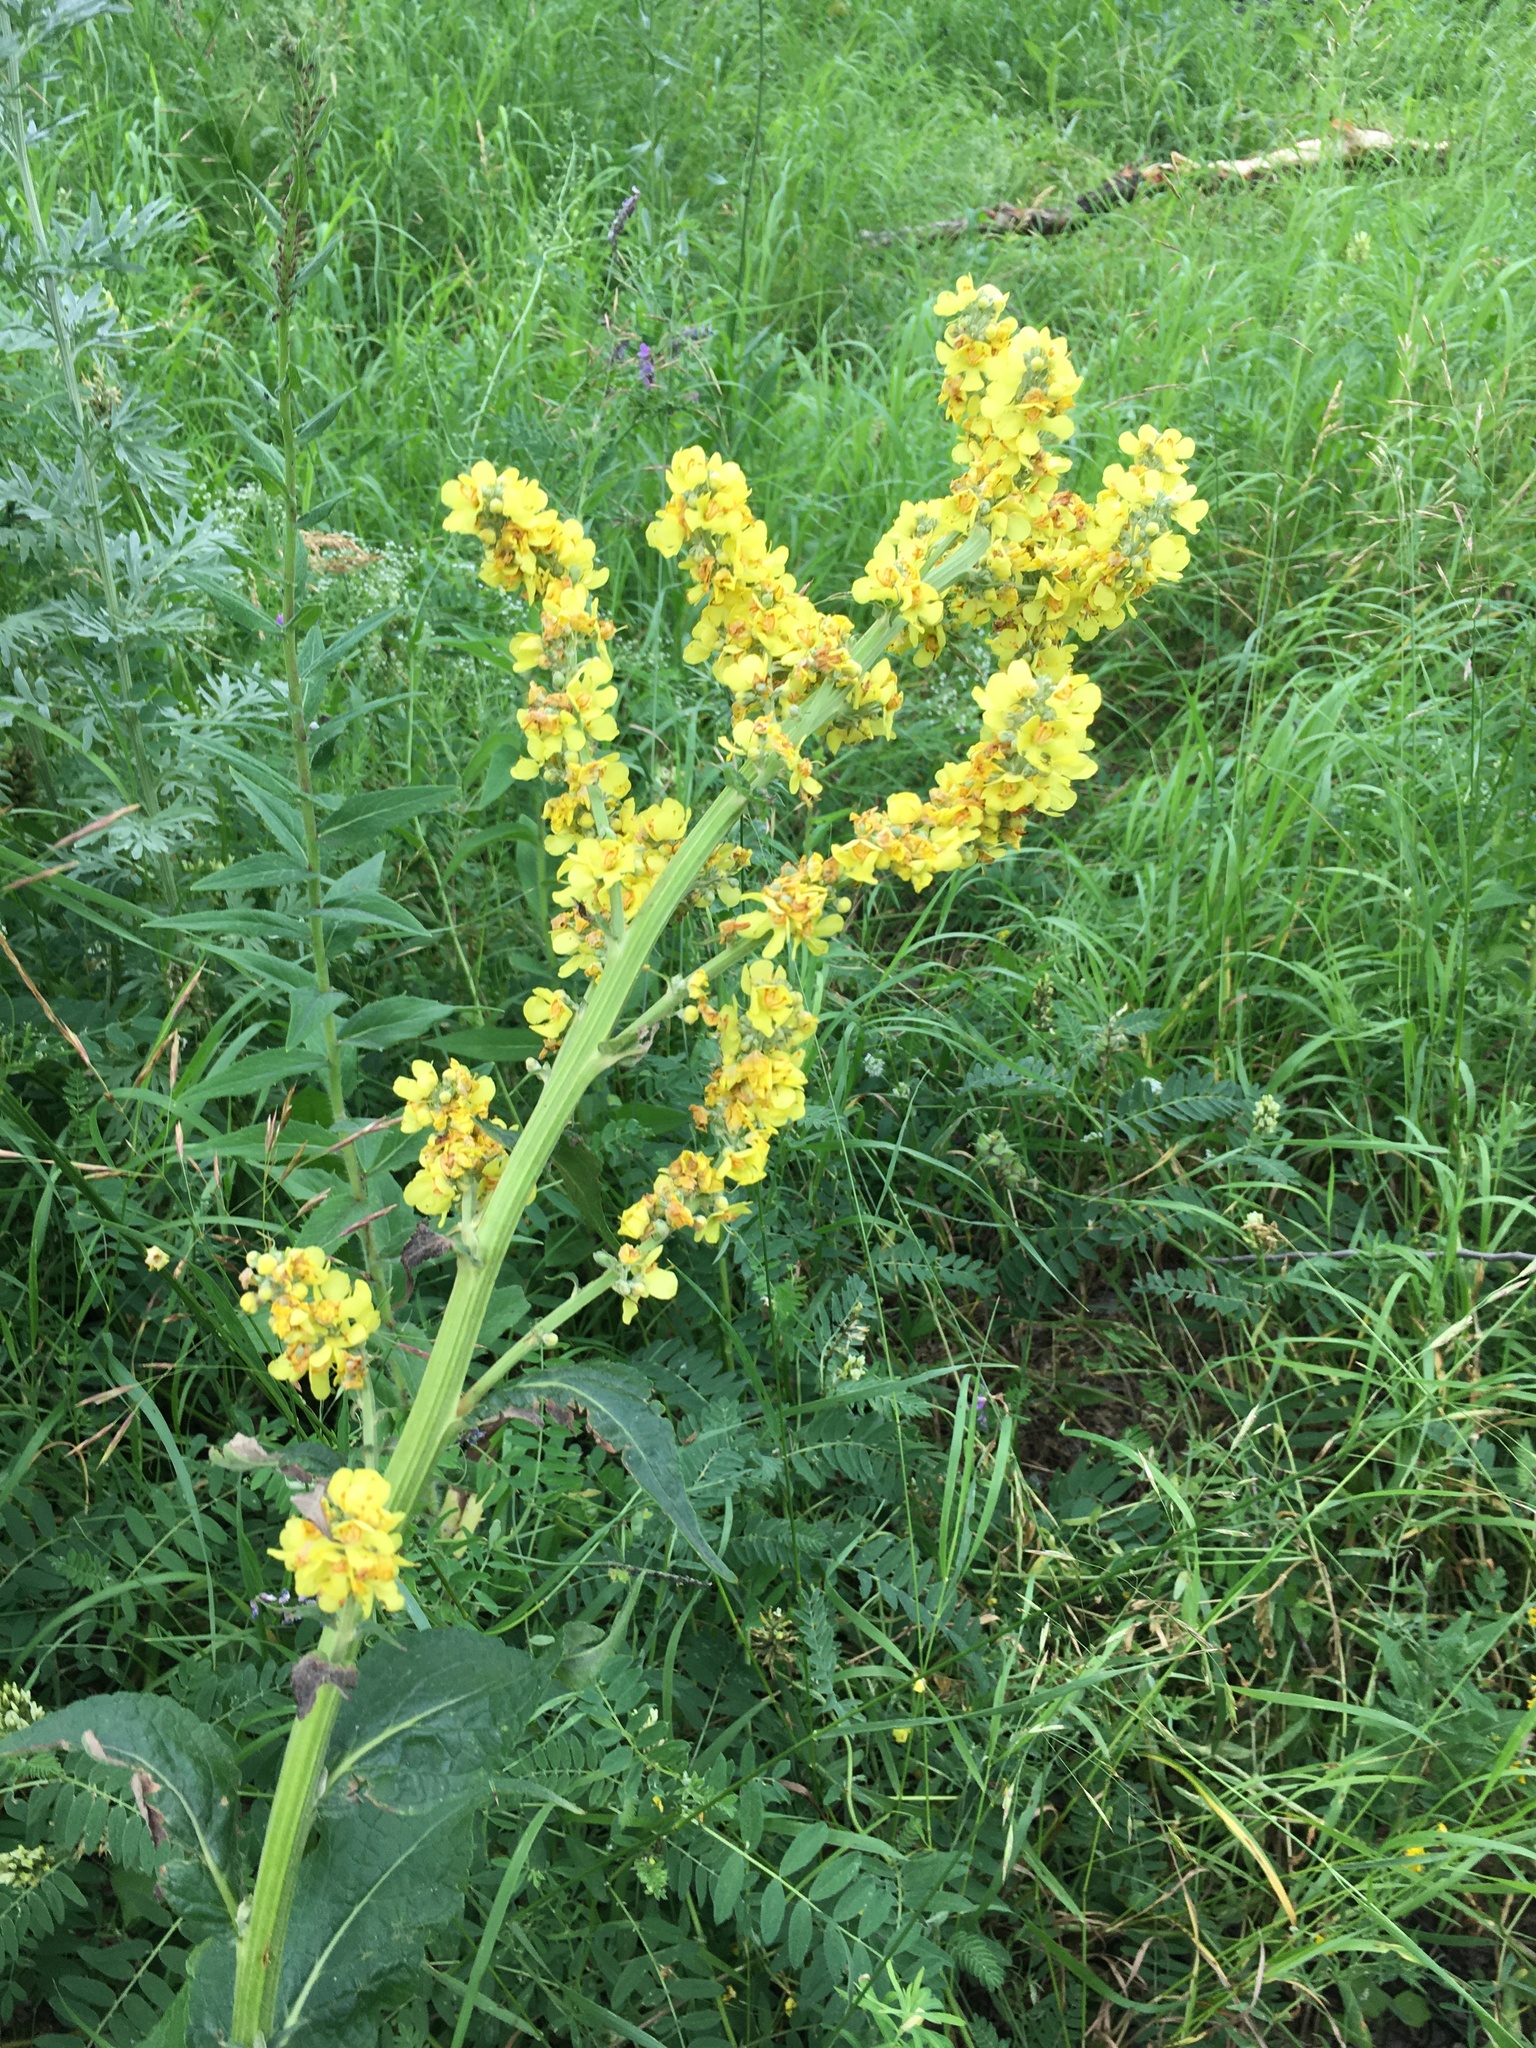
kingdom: Plantae
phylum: Tracheophyta
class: Magnoliopsida
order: Lamiales
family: Scrophulariaceae
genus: Verbascum
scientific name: Verbascum lychnitis
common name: White mullein
